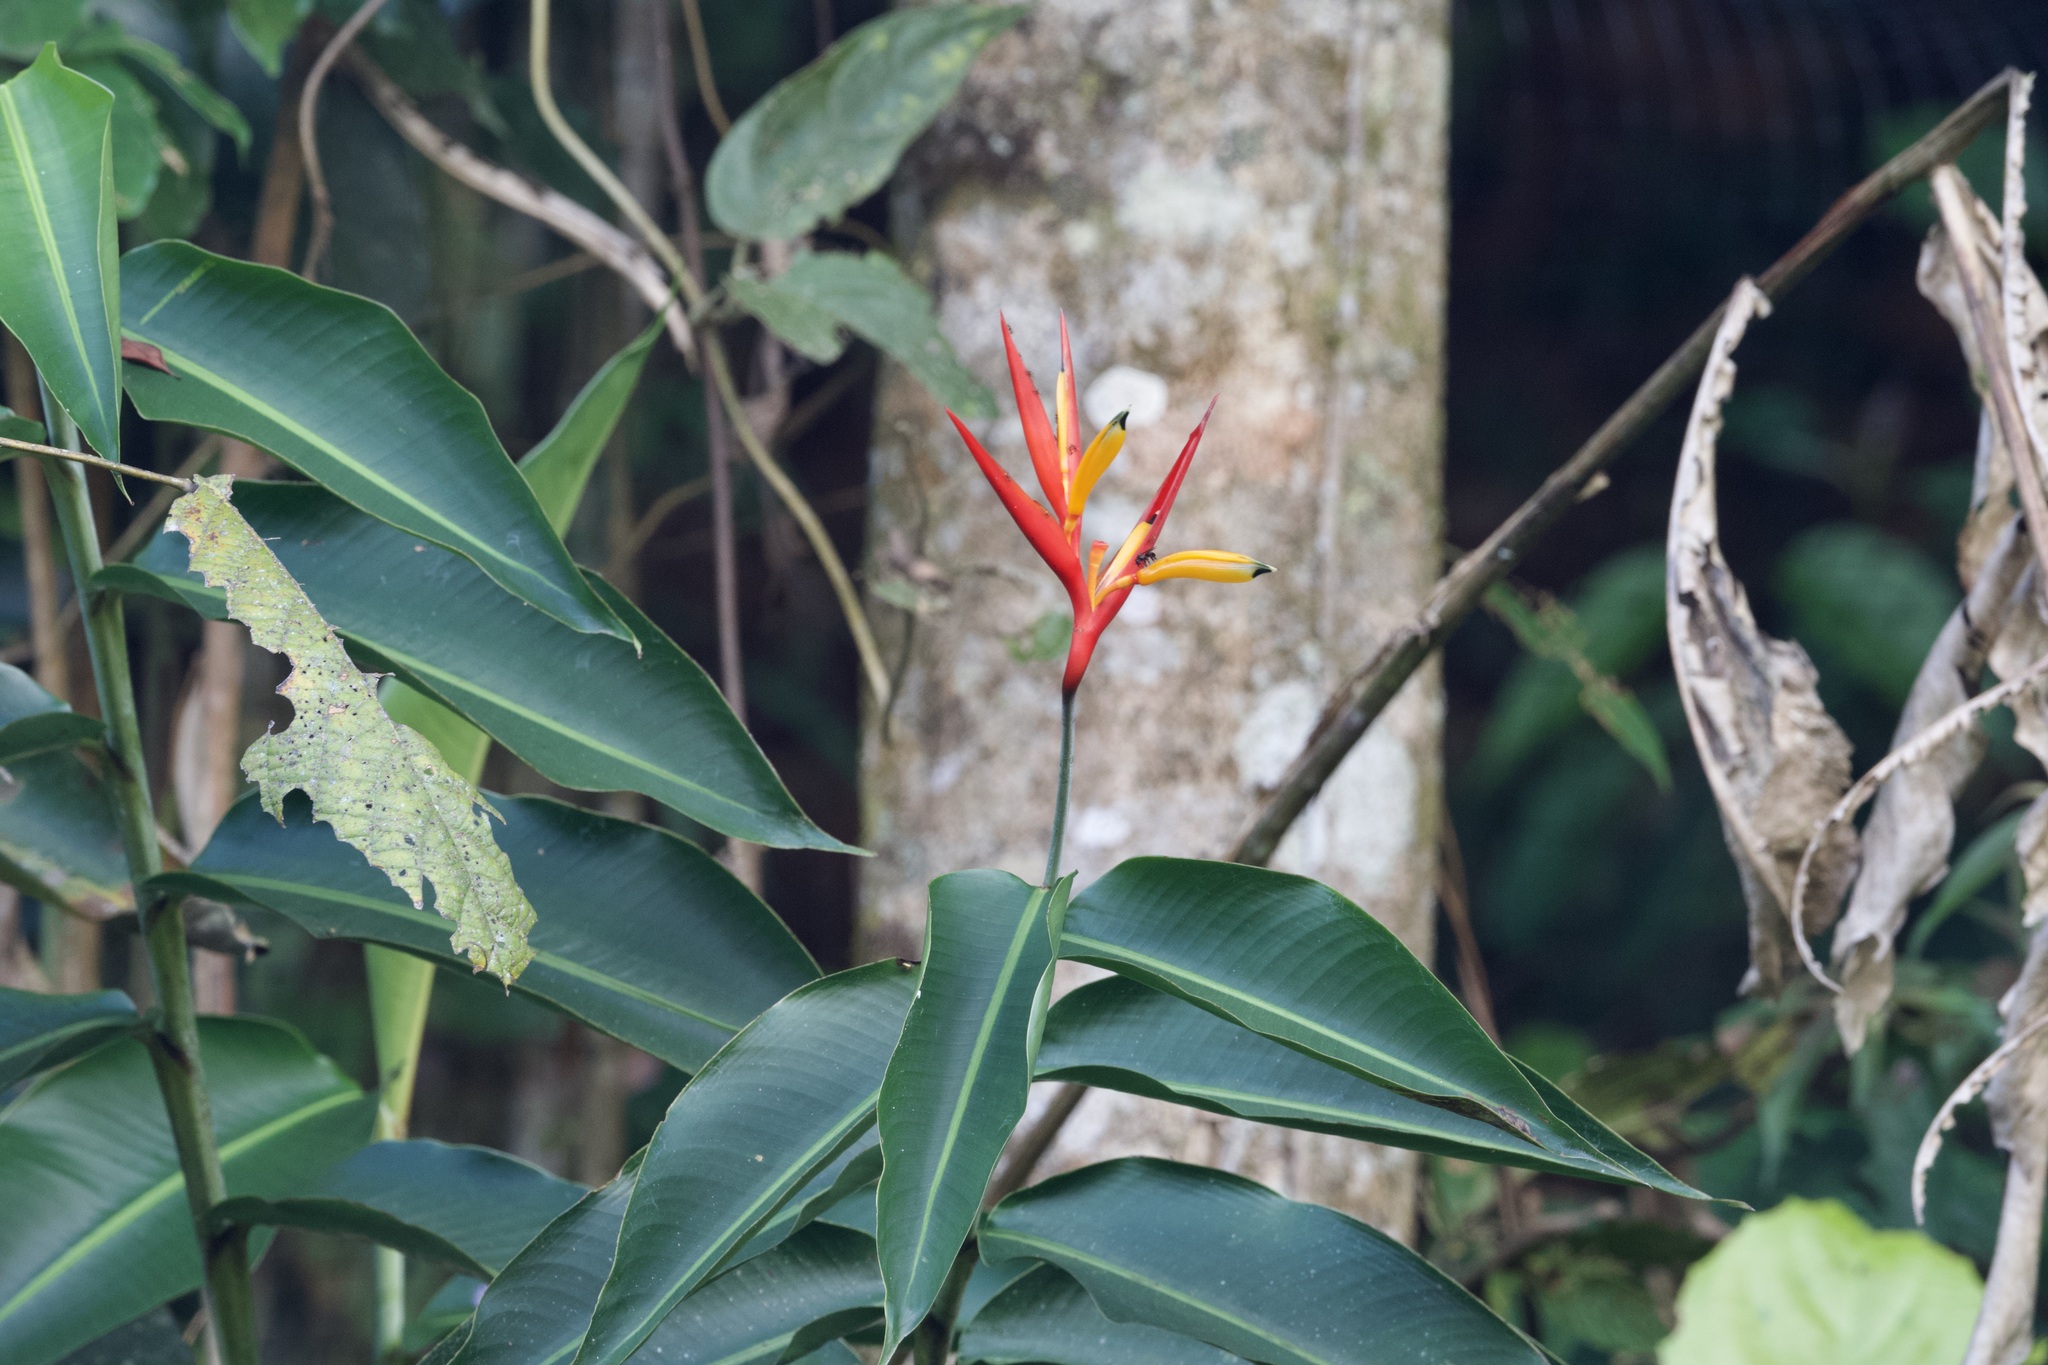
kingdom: Plantae
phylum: Tracheophyta
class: Liliopsida
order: Zingiberales
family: Heliconiaceae
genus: Heliconia
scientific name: Heliconia hirsuta
